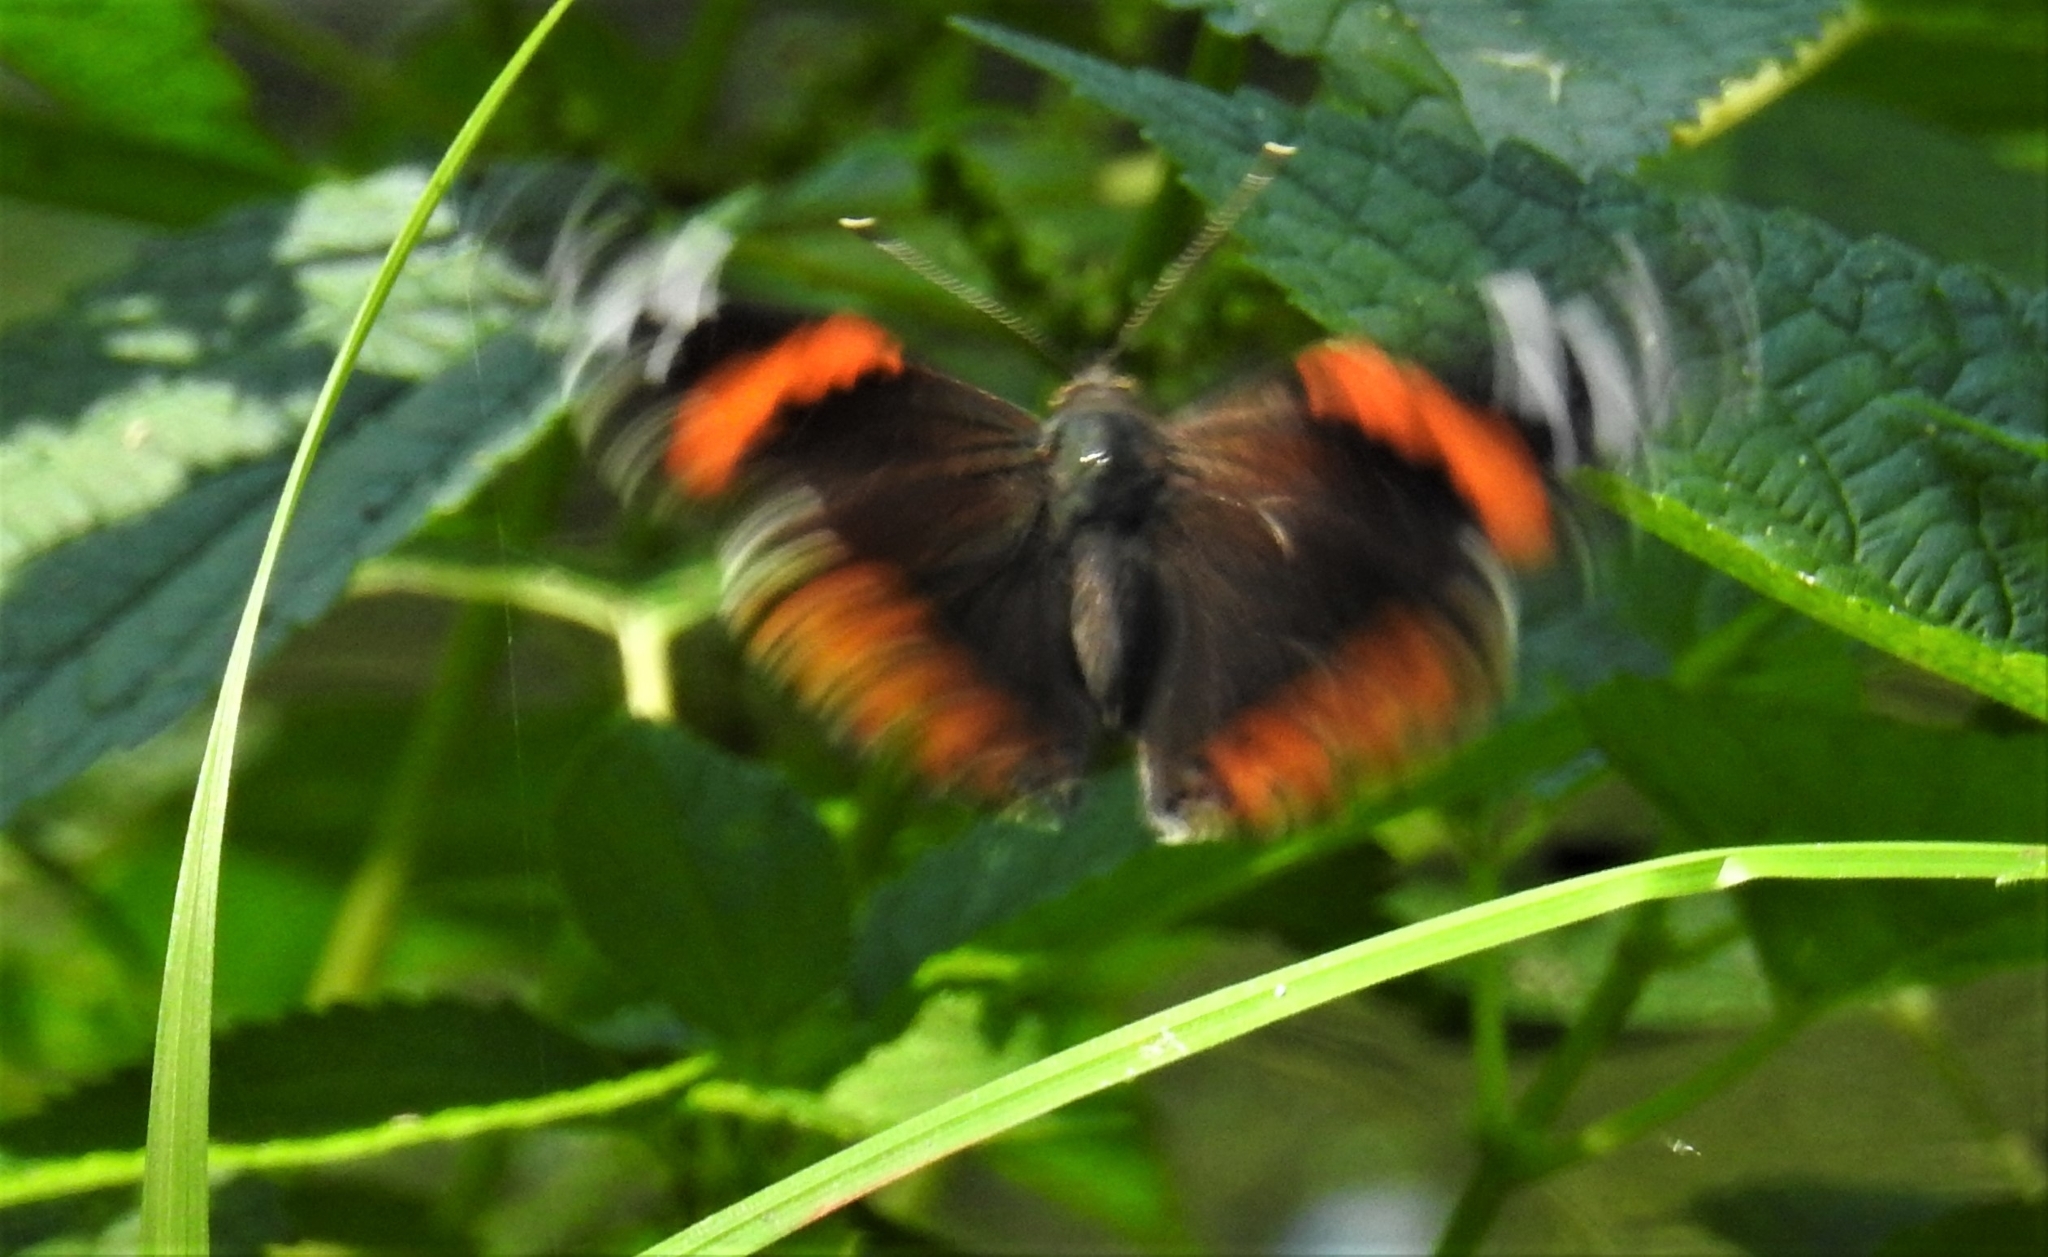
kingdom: Animalia
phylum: Arthropoda
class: Insecta
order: Lepidoptera
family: Nymphalidae
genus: Vanessa
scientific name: Vanessa atalanta
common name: Red admiral
